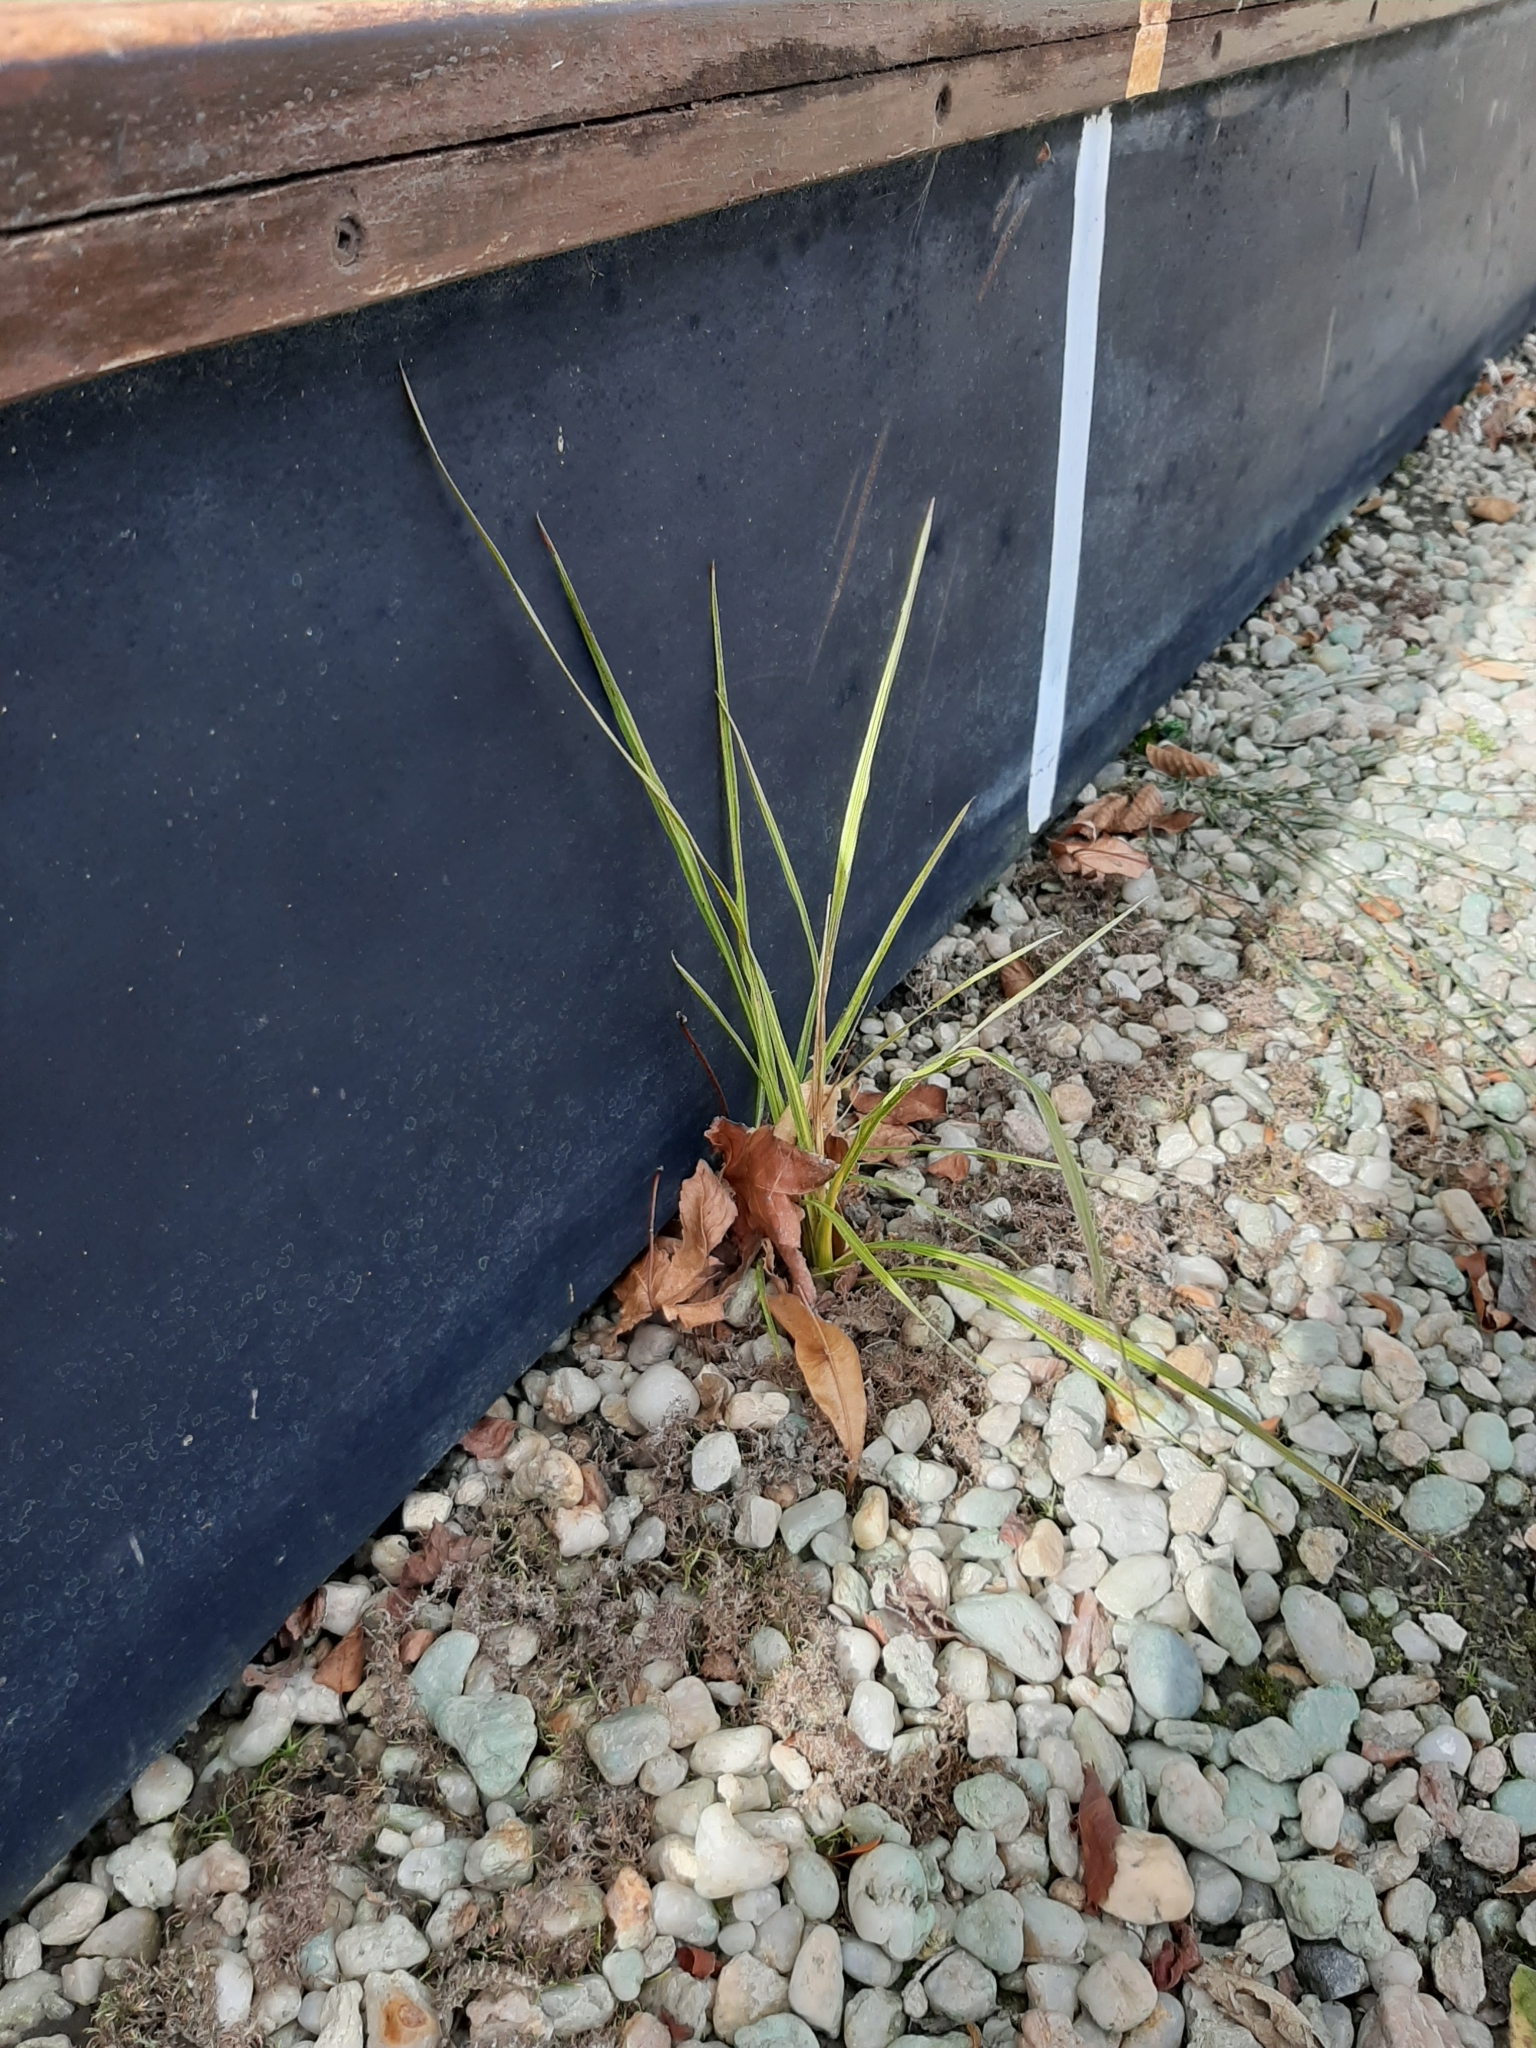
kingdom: Plantae
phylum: Tracheophyta
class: Liliopsida
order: Asparagales
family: Asparagaceae
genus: Cordyline
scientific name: Cordyline australis
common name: Cabbage-palm
